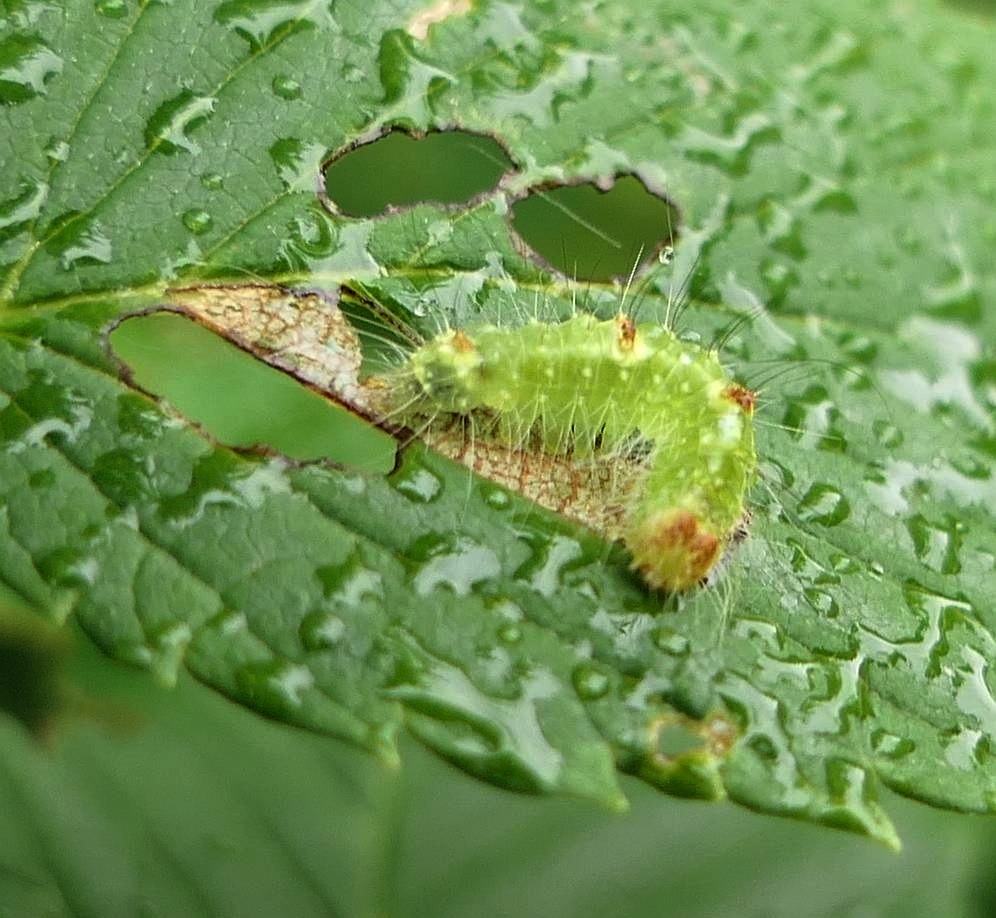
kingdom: Animalia
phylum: Arthropoda
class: Insecta
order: Lepidoptera
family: Noctuidae
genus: Acronicta
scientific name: Acronicta morula
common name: Ochre dagger
